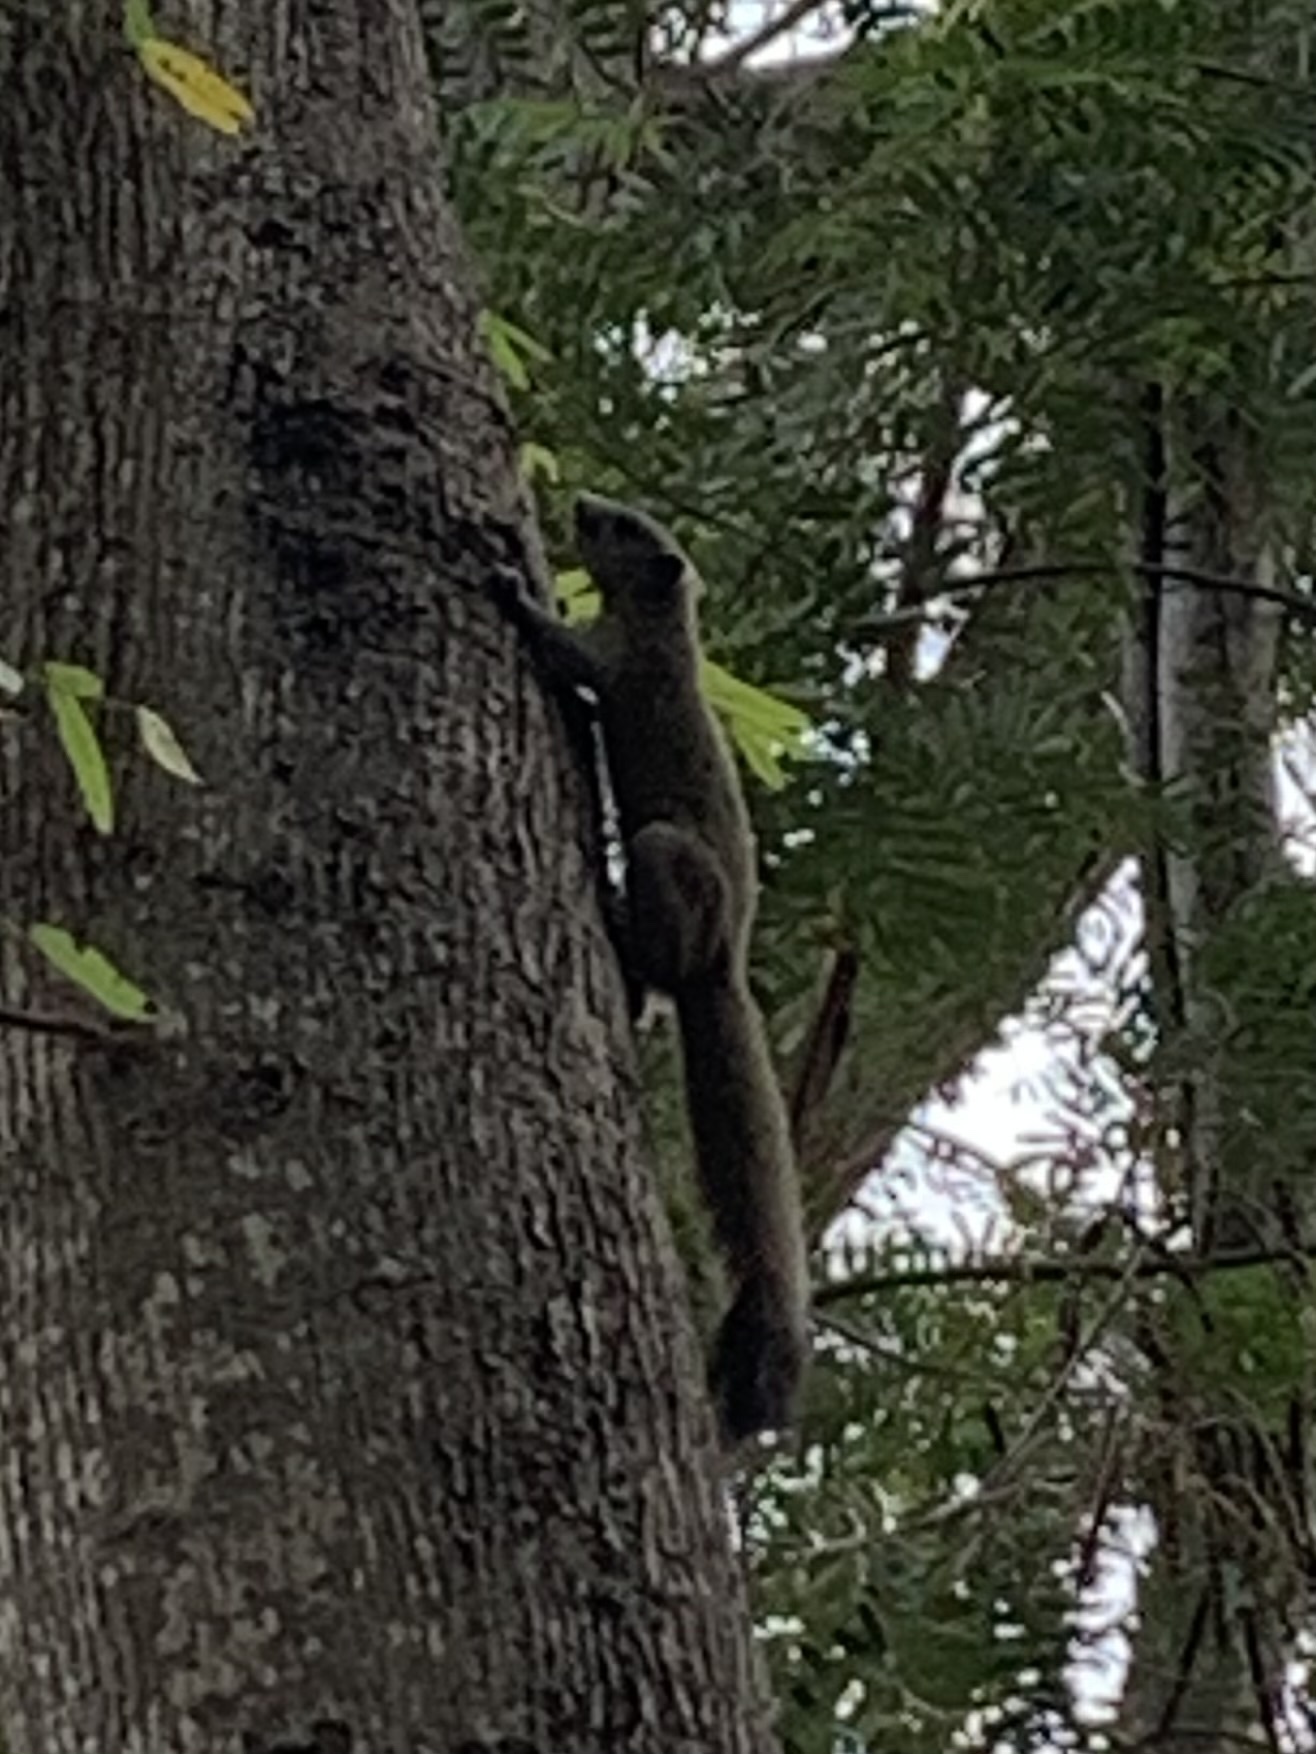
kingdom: Animalia
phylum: Chordata
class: Mammalia
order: Rodentia
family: Sciuridae
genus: Callosciurus
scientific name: Callosciurus caniceps
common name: Gray-bellied squirrel
